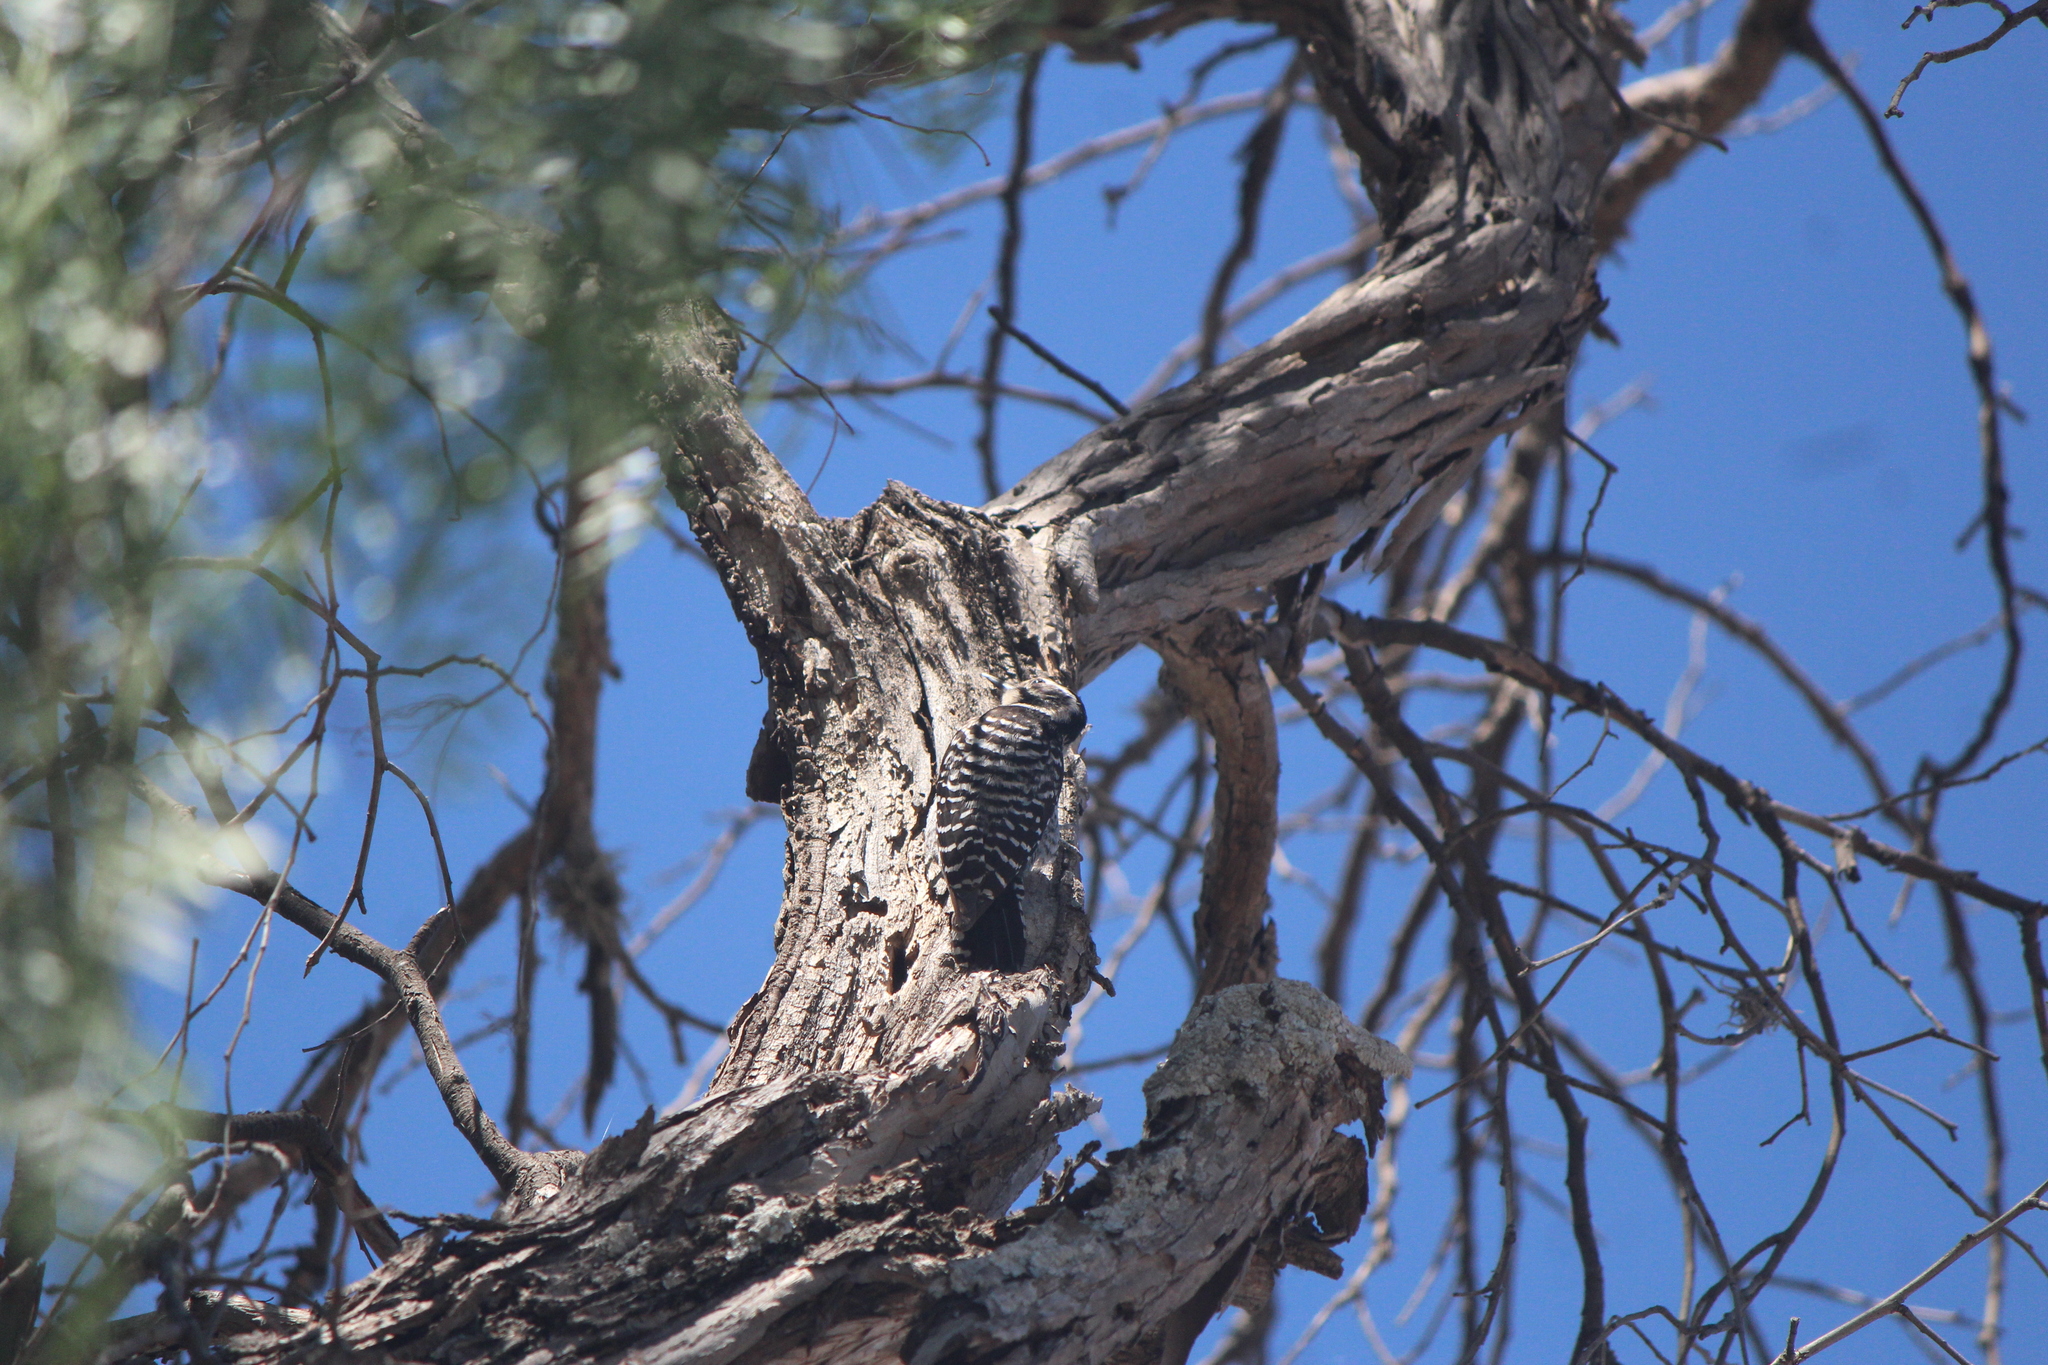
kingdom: Animalia
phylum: Chordata
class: Aves
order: Piciformes
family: Picidae
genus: Dryobates
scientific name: Dryobates scalaris
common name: Ladder-backed woodpecker
